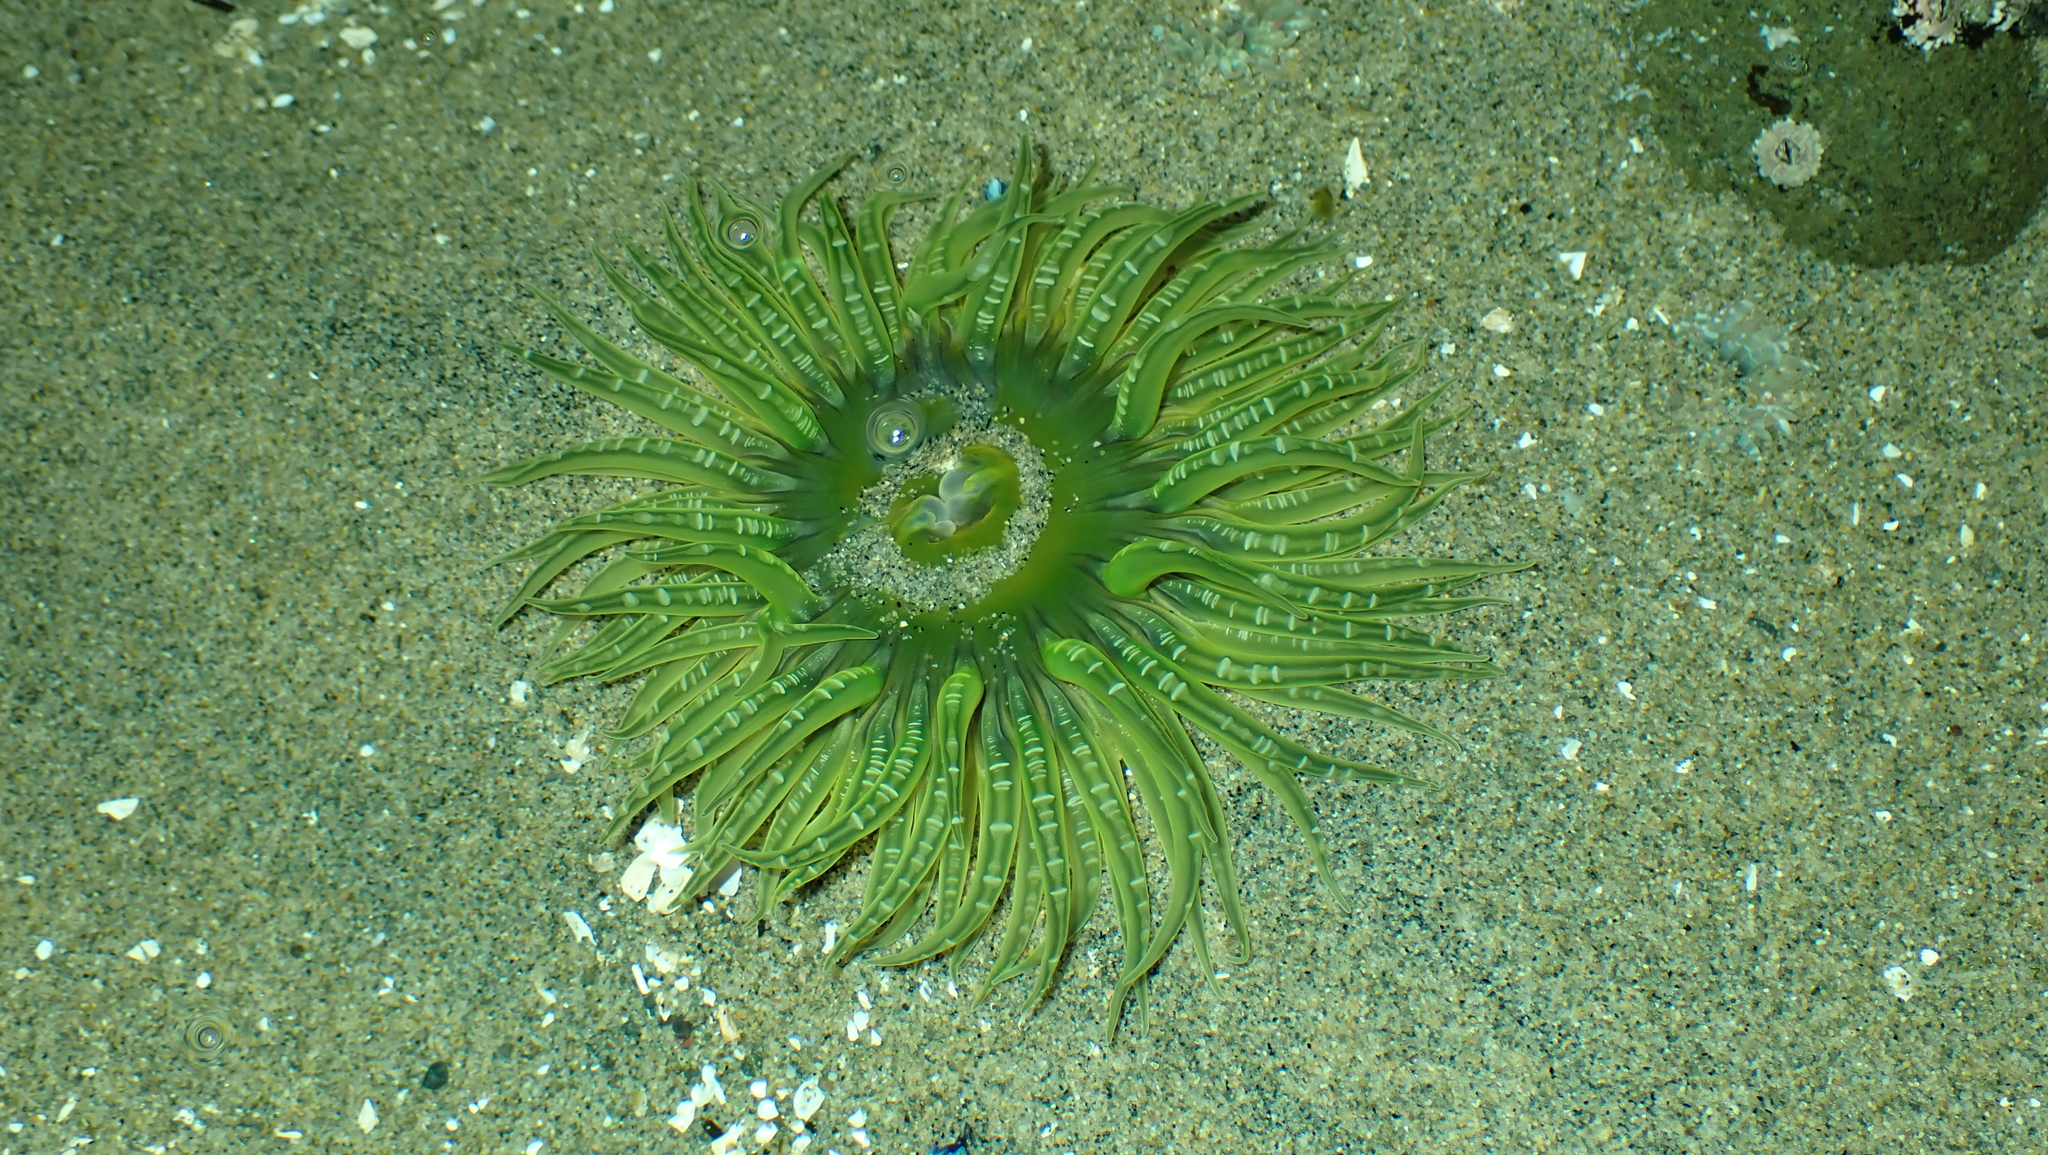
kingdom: Animalia
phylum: Cnidaria
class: Anthozoa
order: Actiniaria
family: Actiniidae
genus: Anthopleura
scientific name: Anthopleura artemisia
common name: Buried sea anemone
